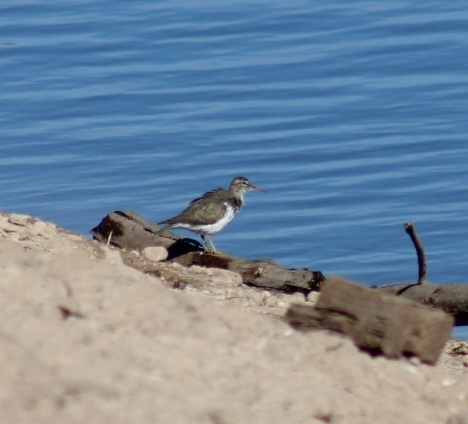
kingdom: Animalia
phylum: Chordata
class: Aves
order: Charadriiformes
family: Scolopacidae
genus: Actitis
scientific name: Actitis macularius
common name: Spotted sandpiper
